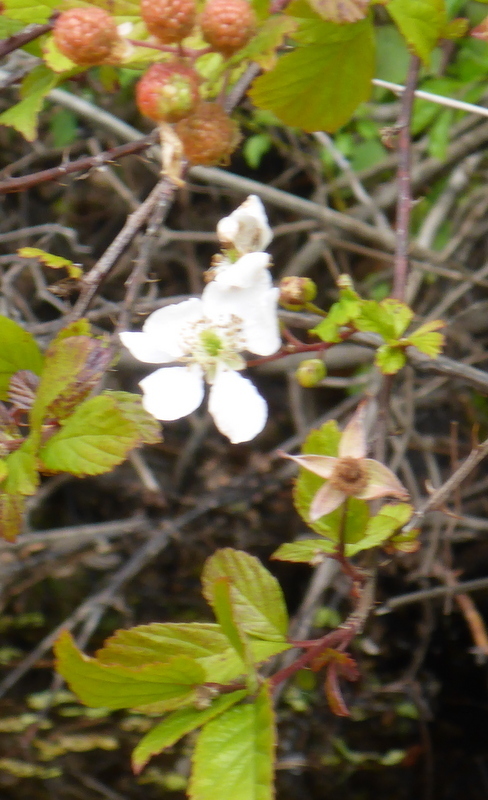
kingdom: Plantae
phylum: Tracheophyta
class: Magnoliopsida
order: Rosales
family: Rosaceae
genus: Rubus
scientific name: Rubus pensilvanicus
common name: Pennsylvania blackberry
